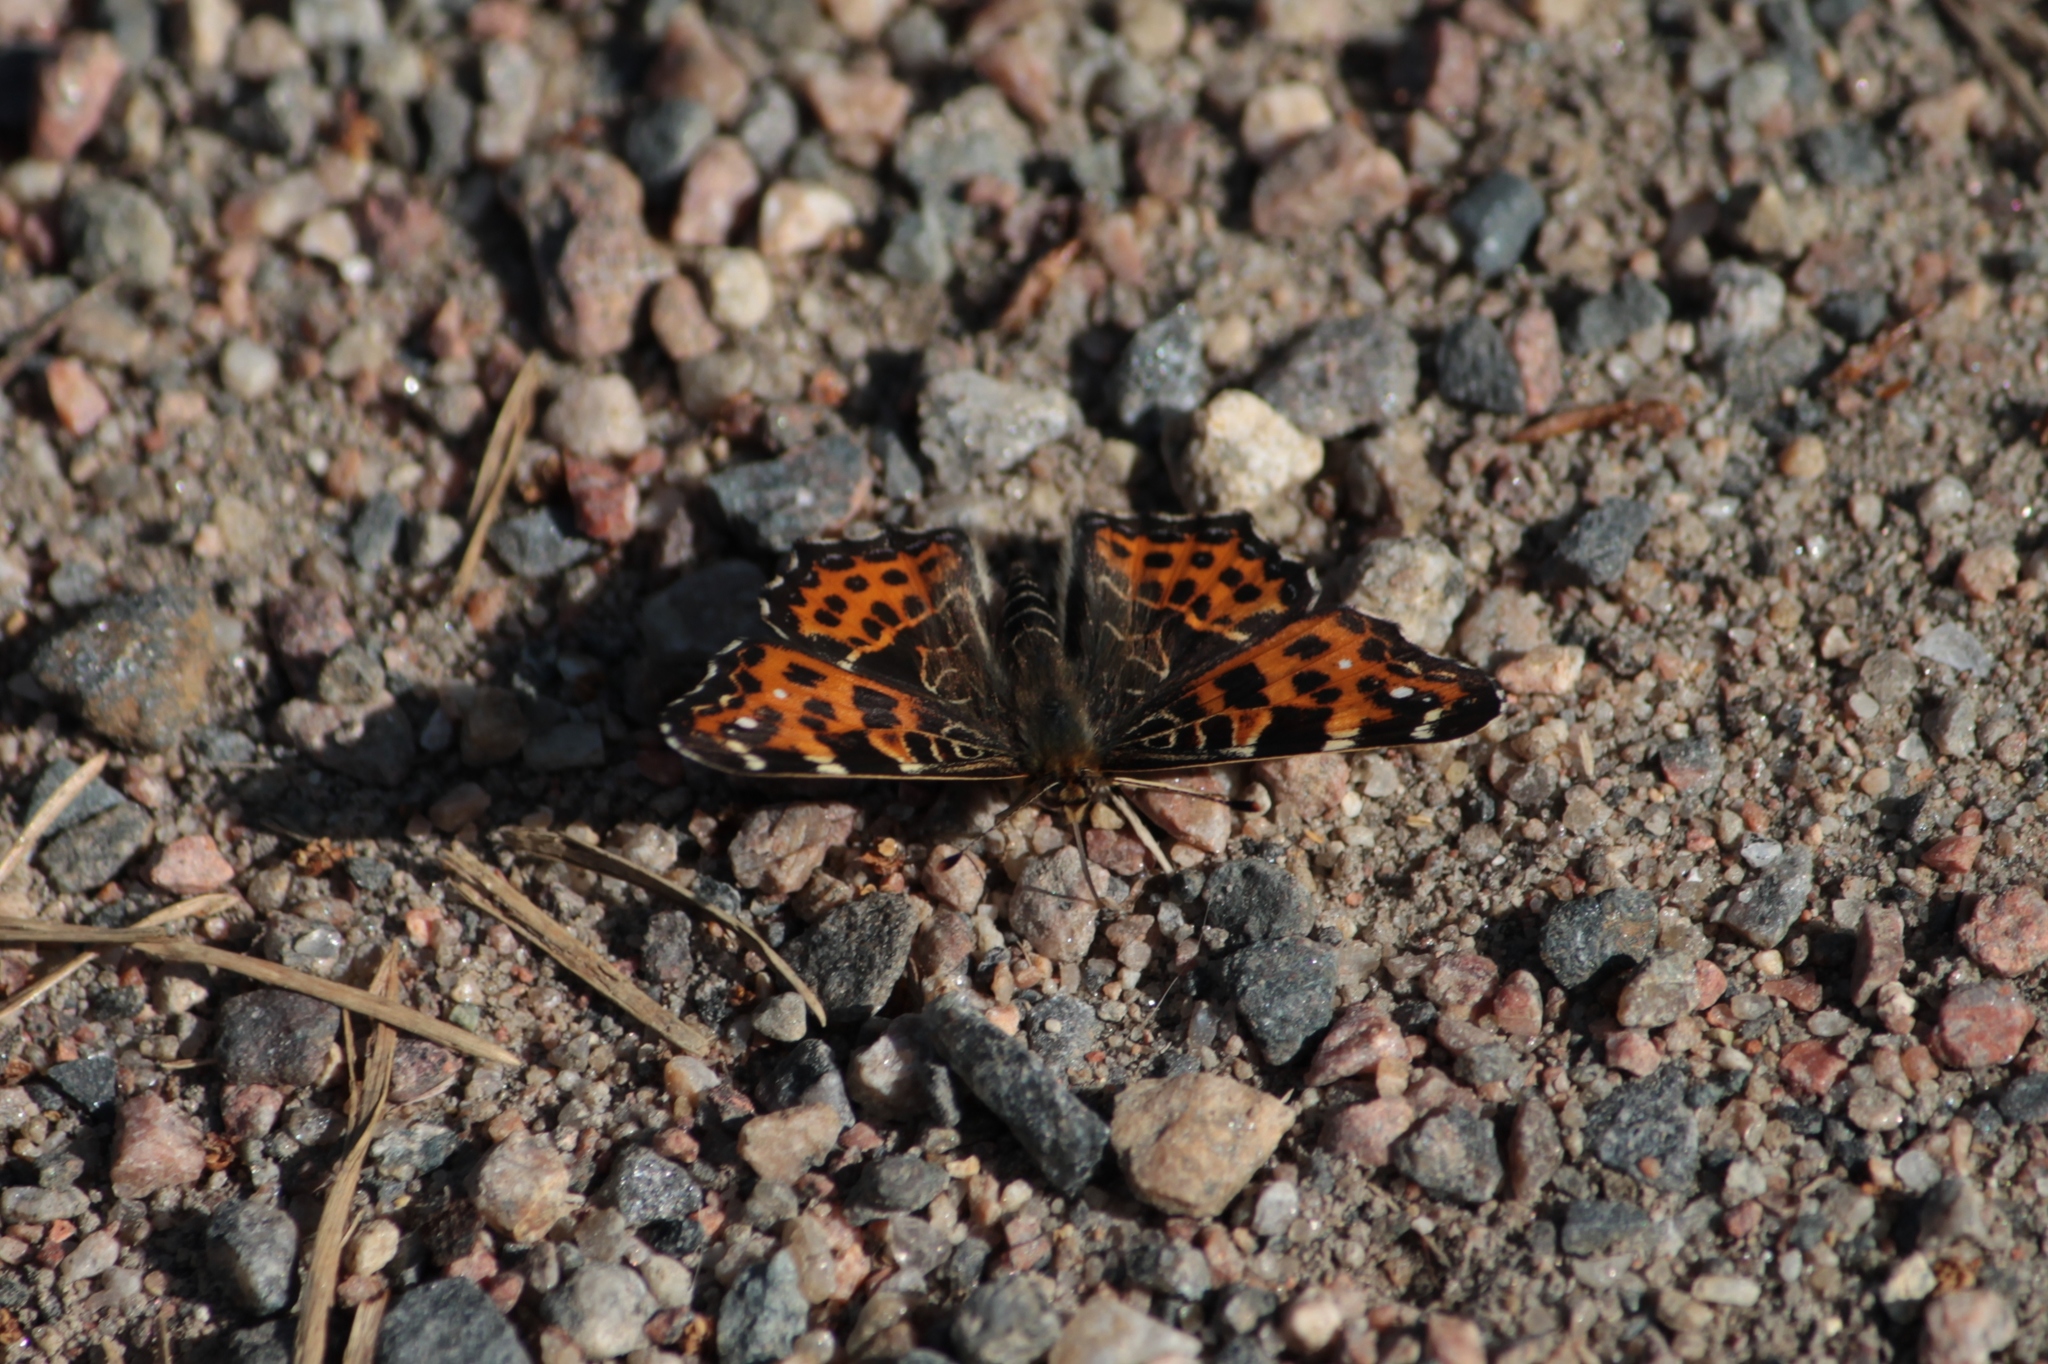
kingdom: Animalia
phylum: Arthropoda
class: Insecta
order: Lepidoptera
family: Nymphalidae
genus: Araschnia
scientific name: Araschnia levana
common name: Map butterfly
